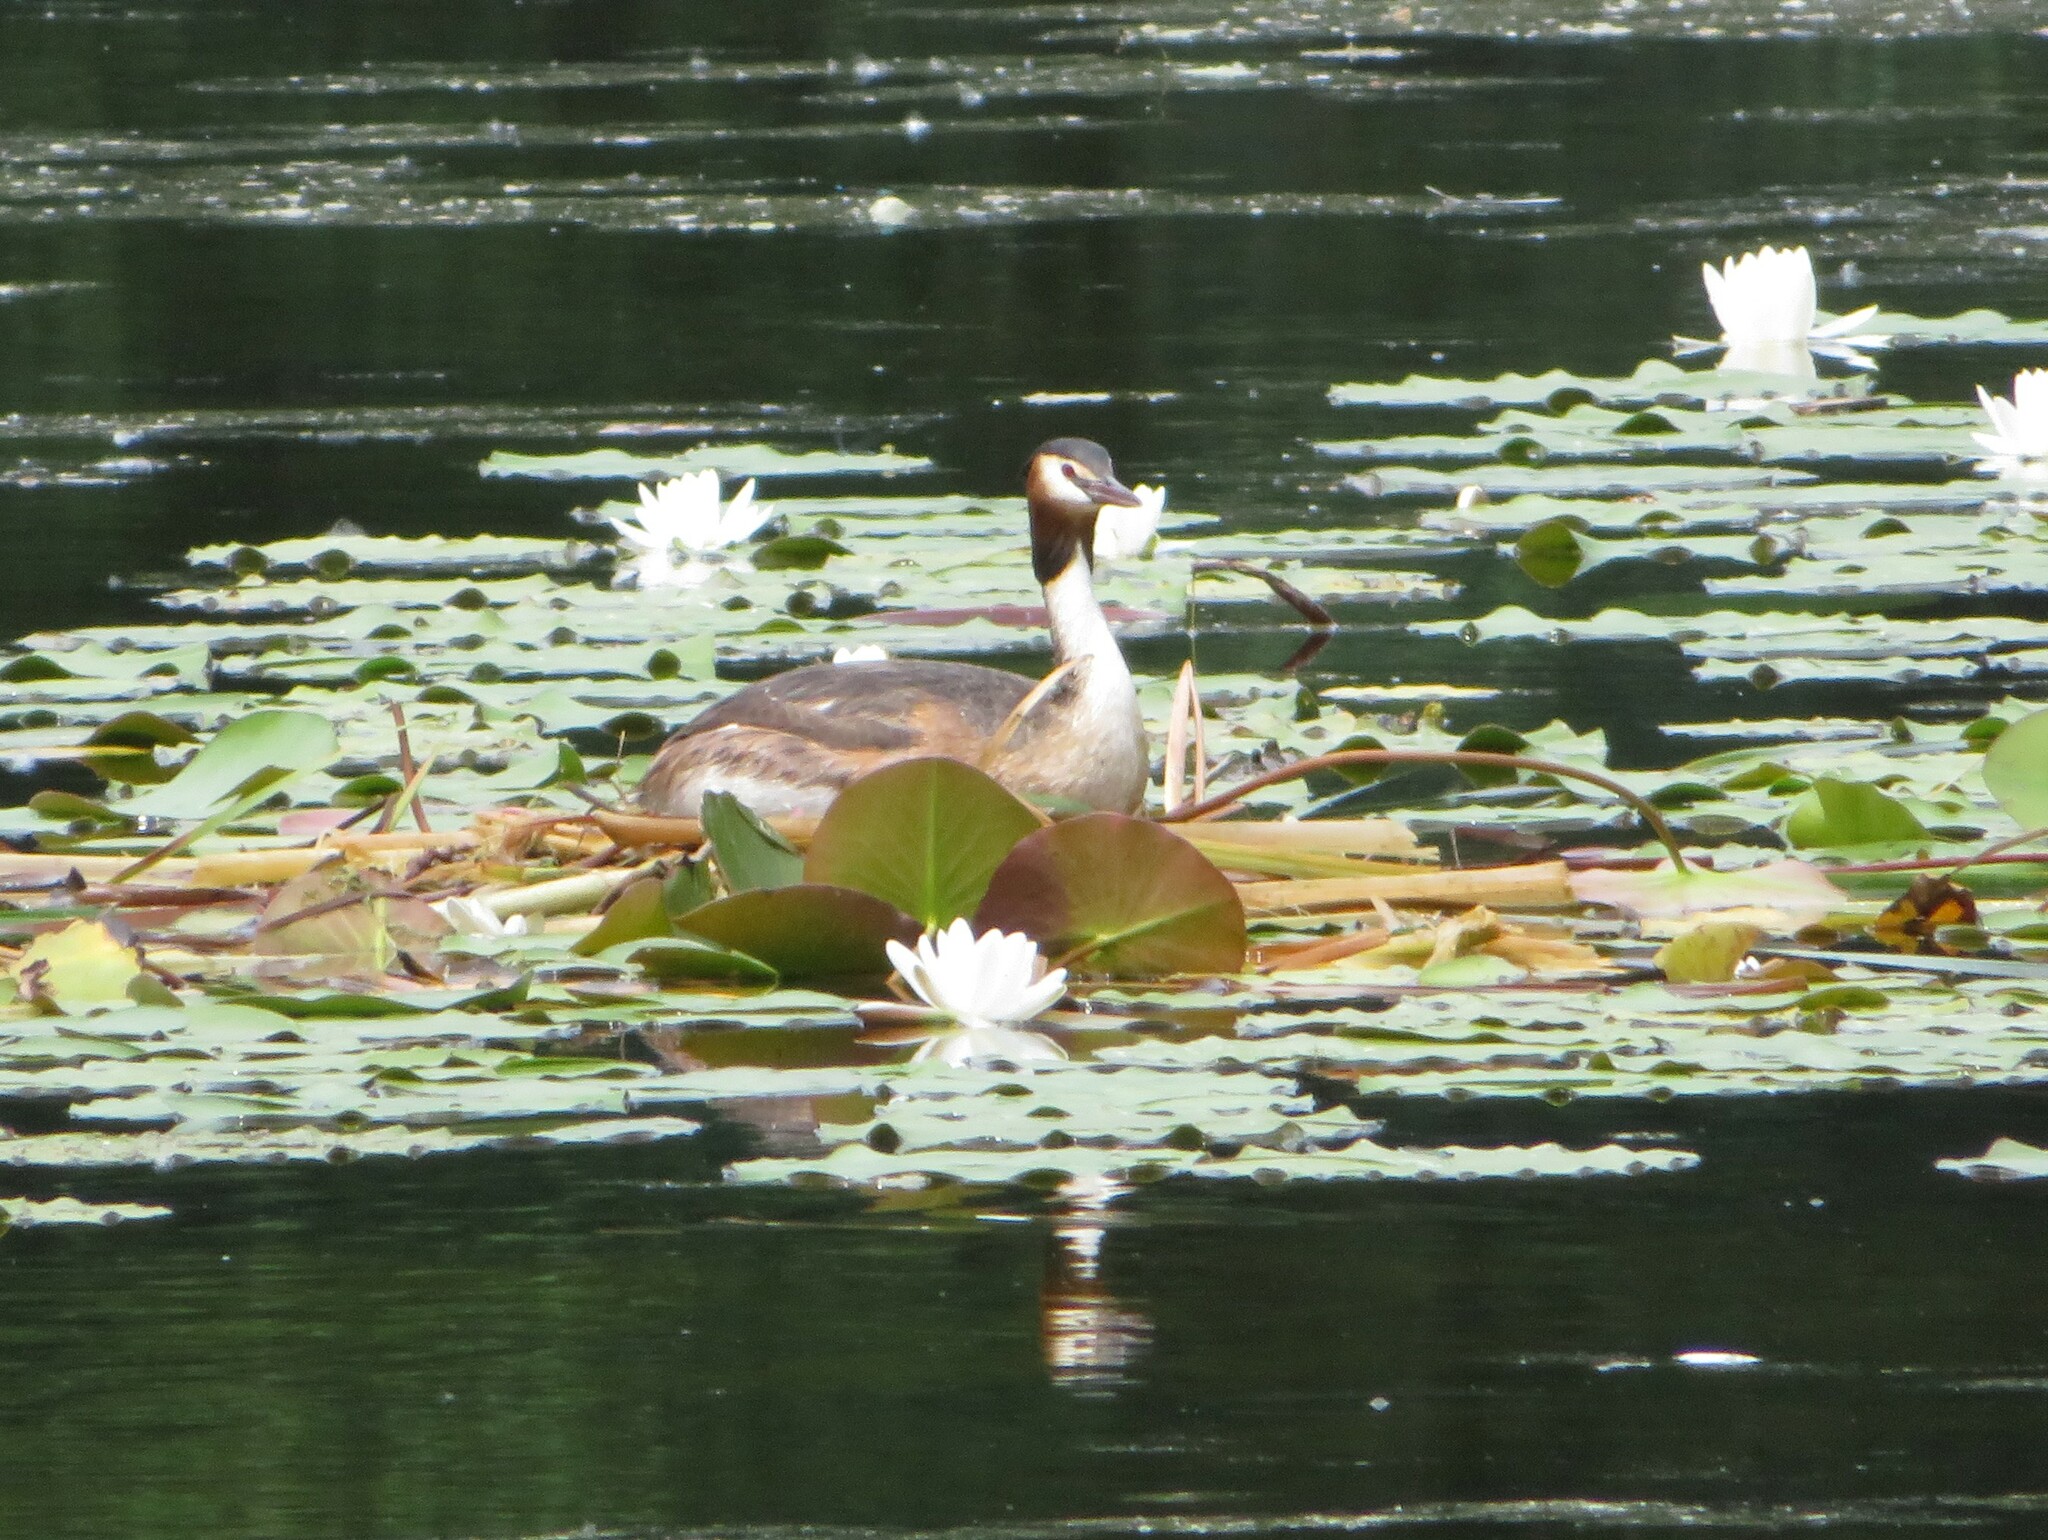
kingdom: Animalia
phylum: Chordata
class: Aves
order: Podicipediformes
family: Podicipedidae
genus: Podiceps
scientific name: Podiceps cristatus
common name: Great crested grebe
